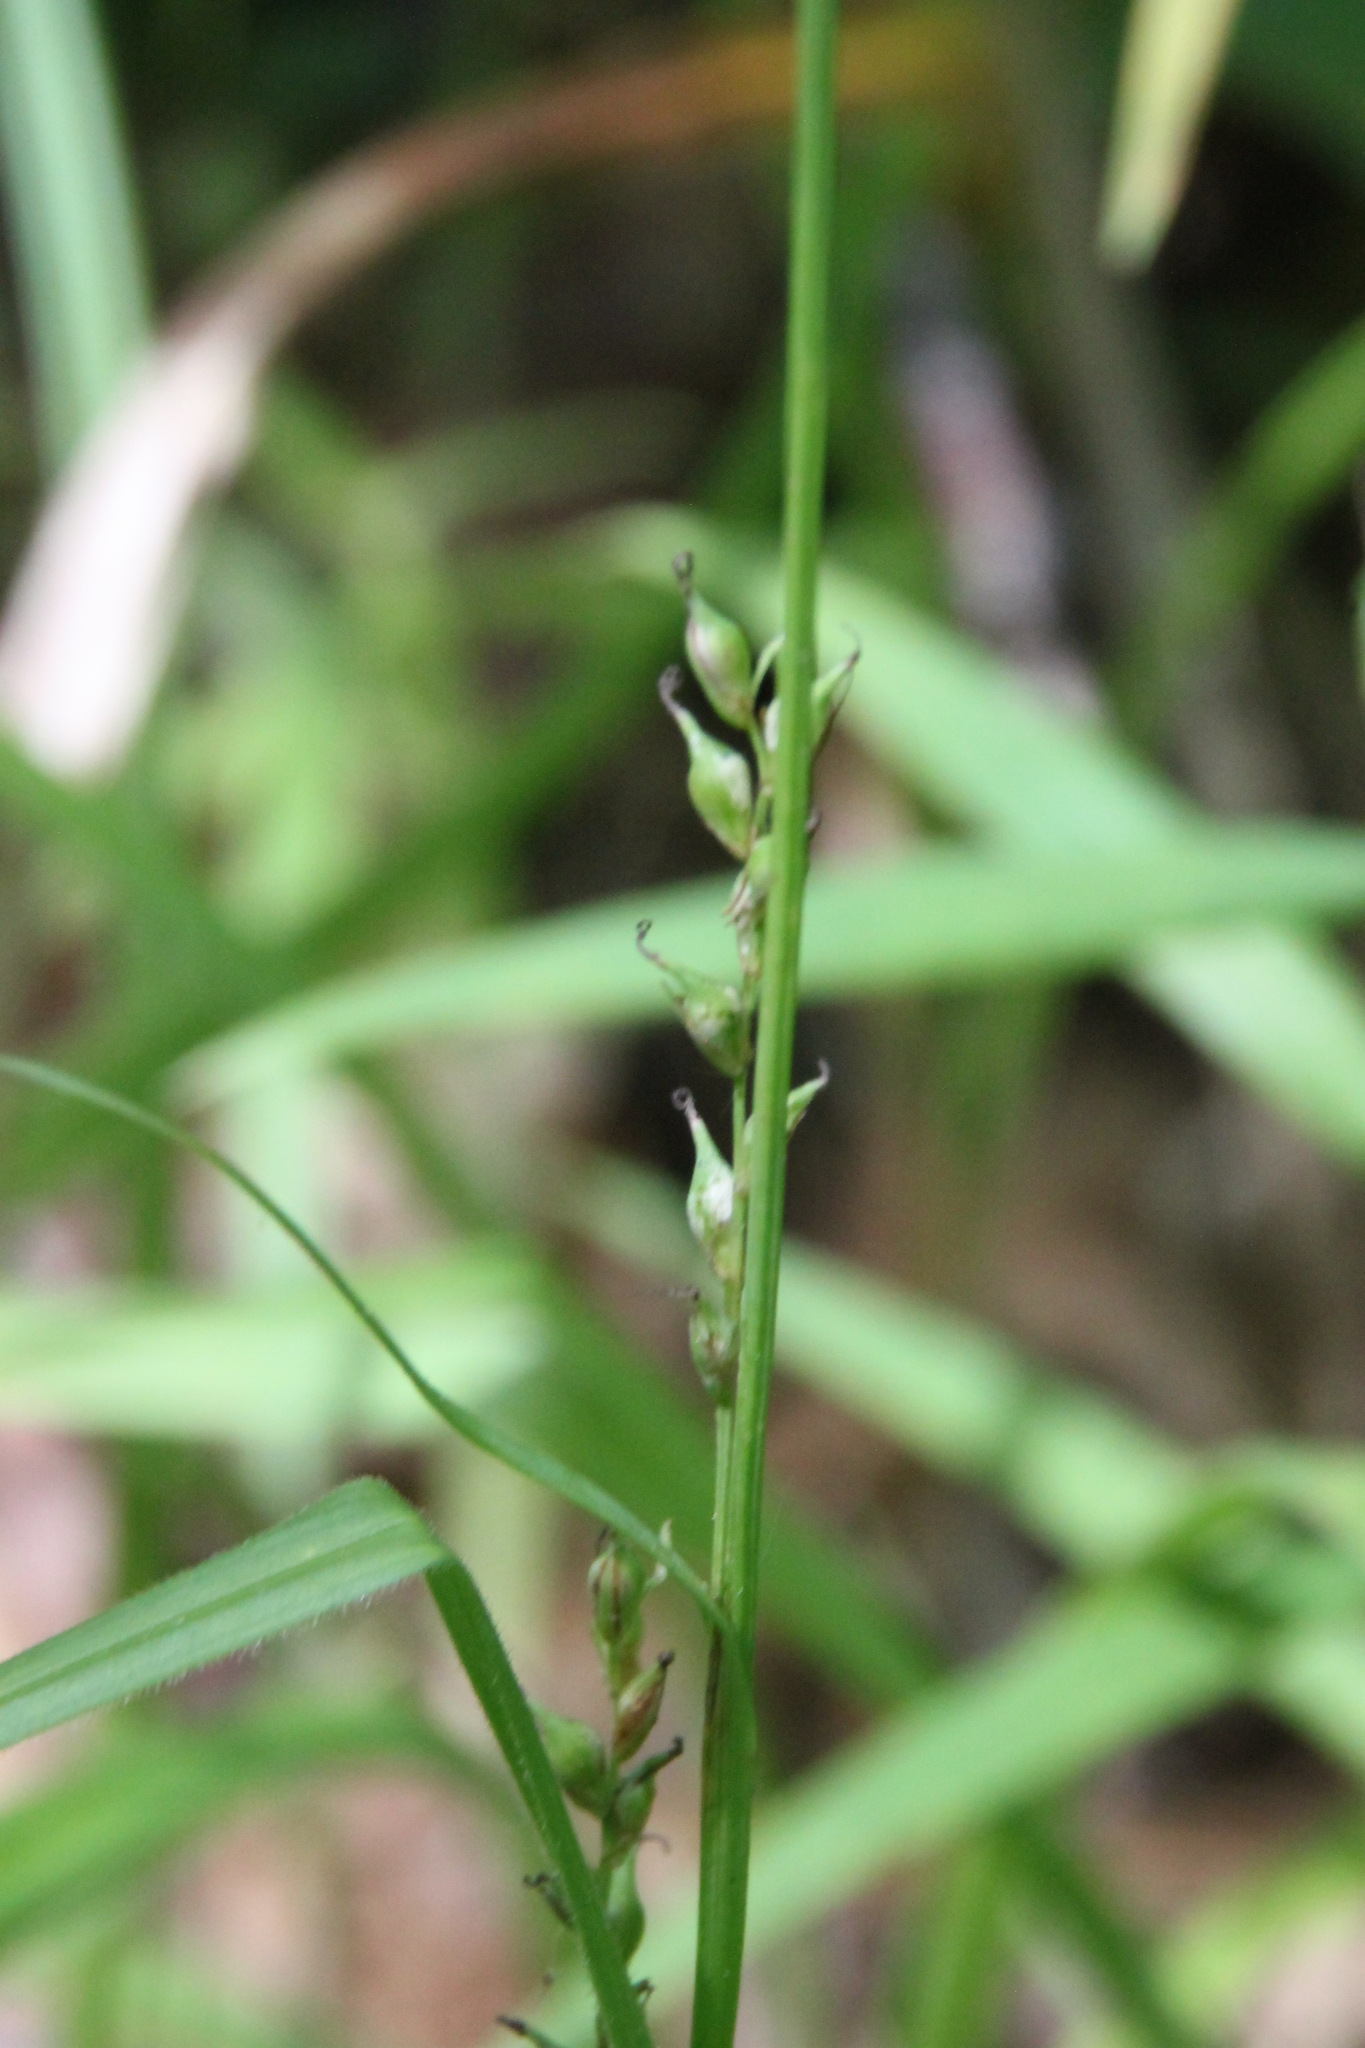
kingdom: Plantae
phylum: Tracheophyta
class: Liliopsida
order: Poales
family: Cyperaceae
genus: Carex
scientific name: Carex pilosa
